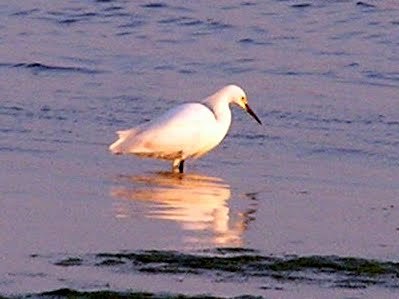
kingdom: Animalia
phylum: Chordata
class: Aves
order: Pelecaniformes
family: Ardeidae
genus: Egretta
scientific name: Egretta thula
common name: Snowy egret
